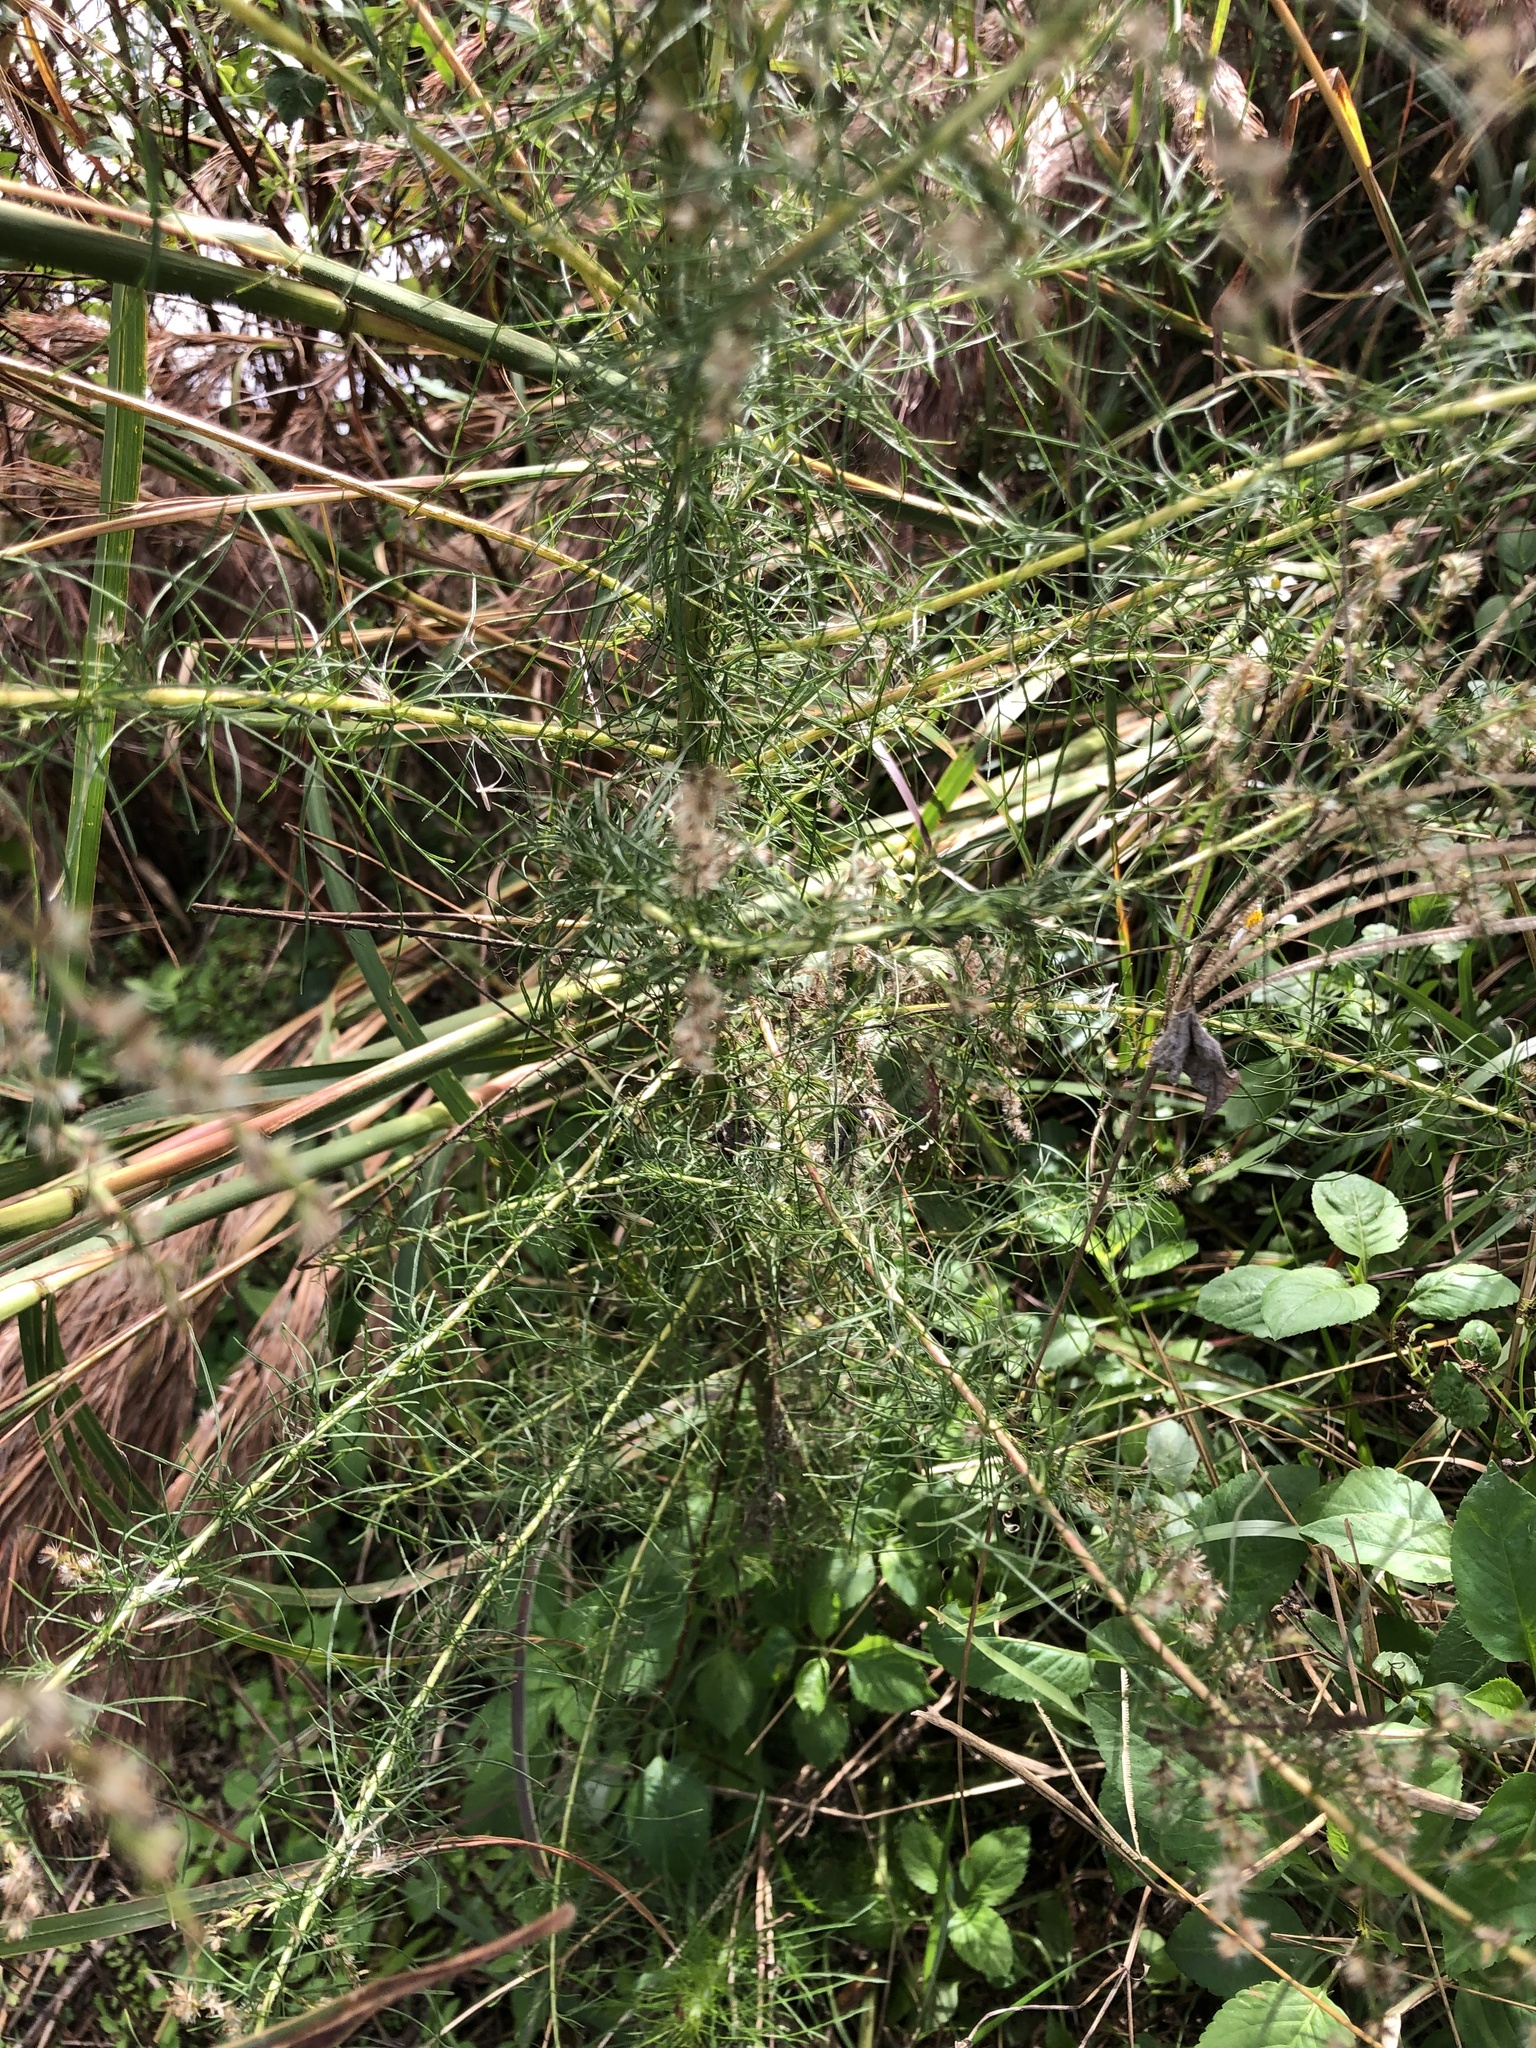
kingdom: Plantae
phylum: Tracheophyta
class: Magnoliopsida
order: Asterales
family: Asteraceae
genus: Eupatorium
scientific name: Eupatorium capillifolium
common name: Dog-fennel
